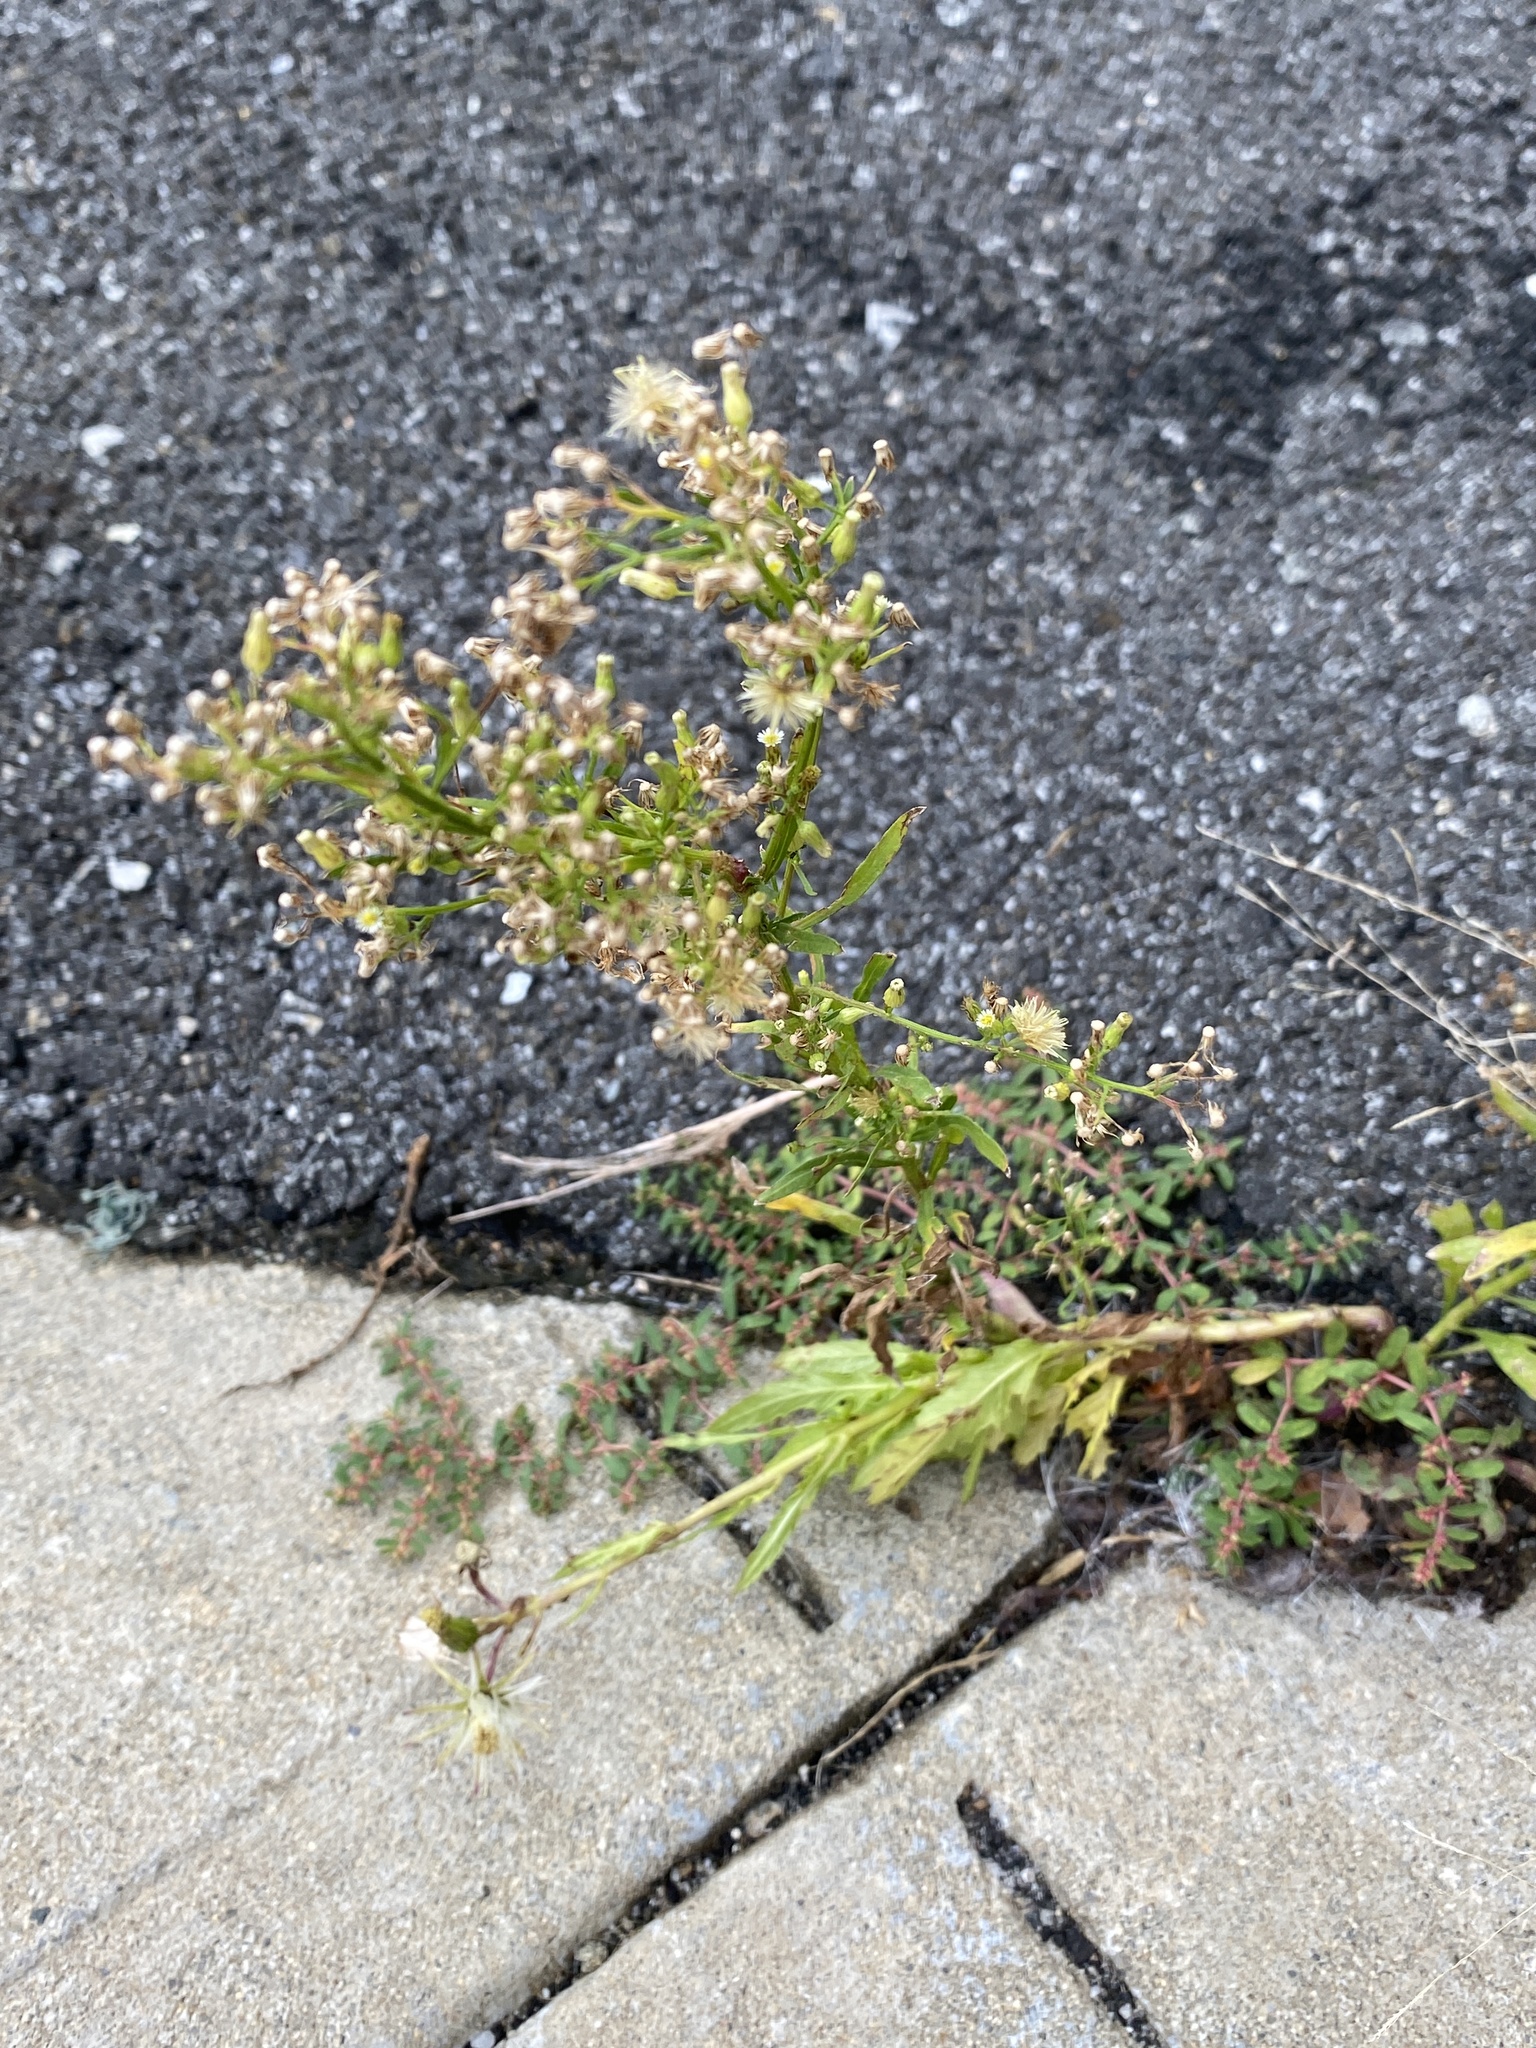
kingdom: Plantae
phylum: Tracheophyta
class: Magnoliopsida
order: Asterales
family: Asteraceae
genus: Erigeron
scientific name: Erigeron canadensis
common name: Canadian fleabane
